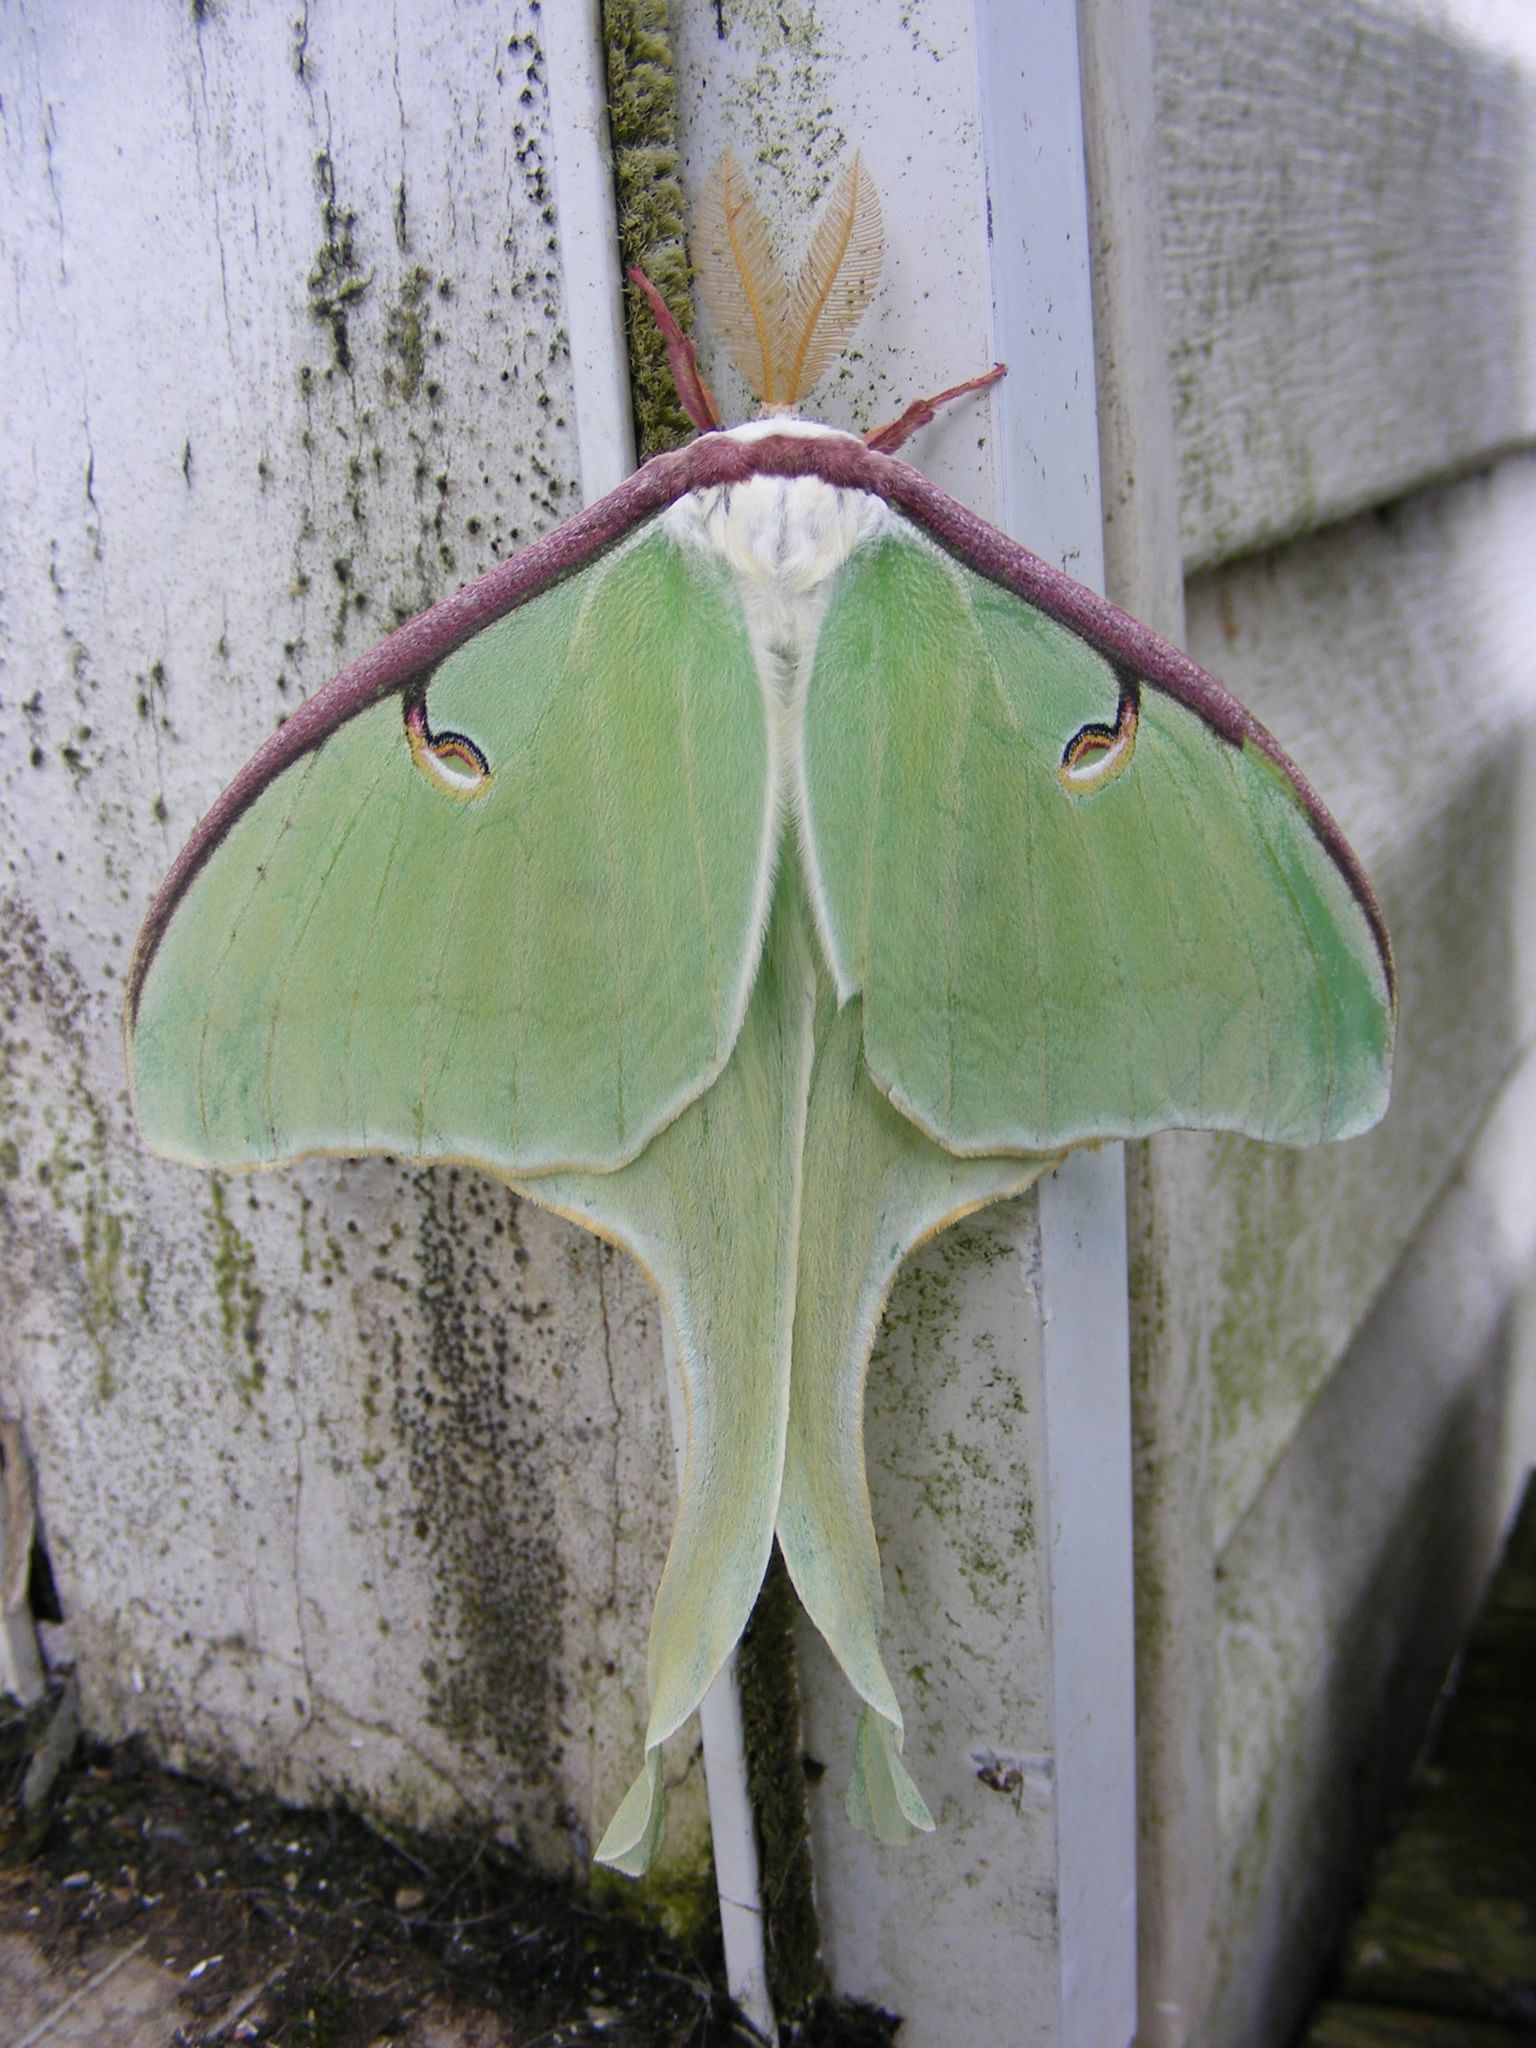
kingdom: Animalia
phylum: Arthropoda
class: Insecta
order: Lepidoptera
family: Saturniidae
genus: Actias
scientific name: Actias luna
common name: Luna moth
